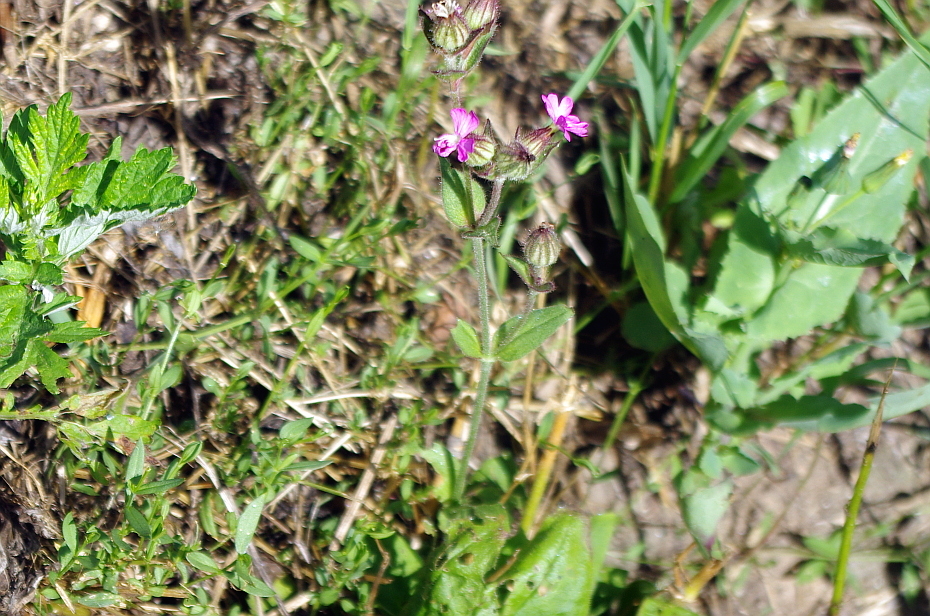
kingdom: Plantae
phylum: Tracheophyta
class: Magnoliopsida
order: Caryophyllales
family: Caryophyllaceae
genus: Silene
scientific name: Silene dioica
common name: Red campion
